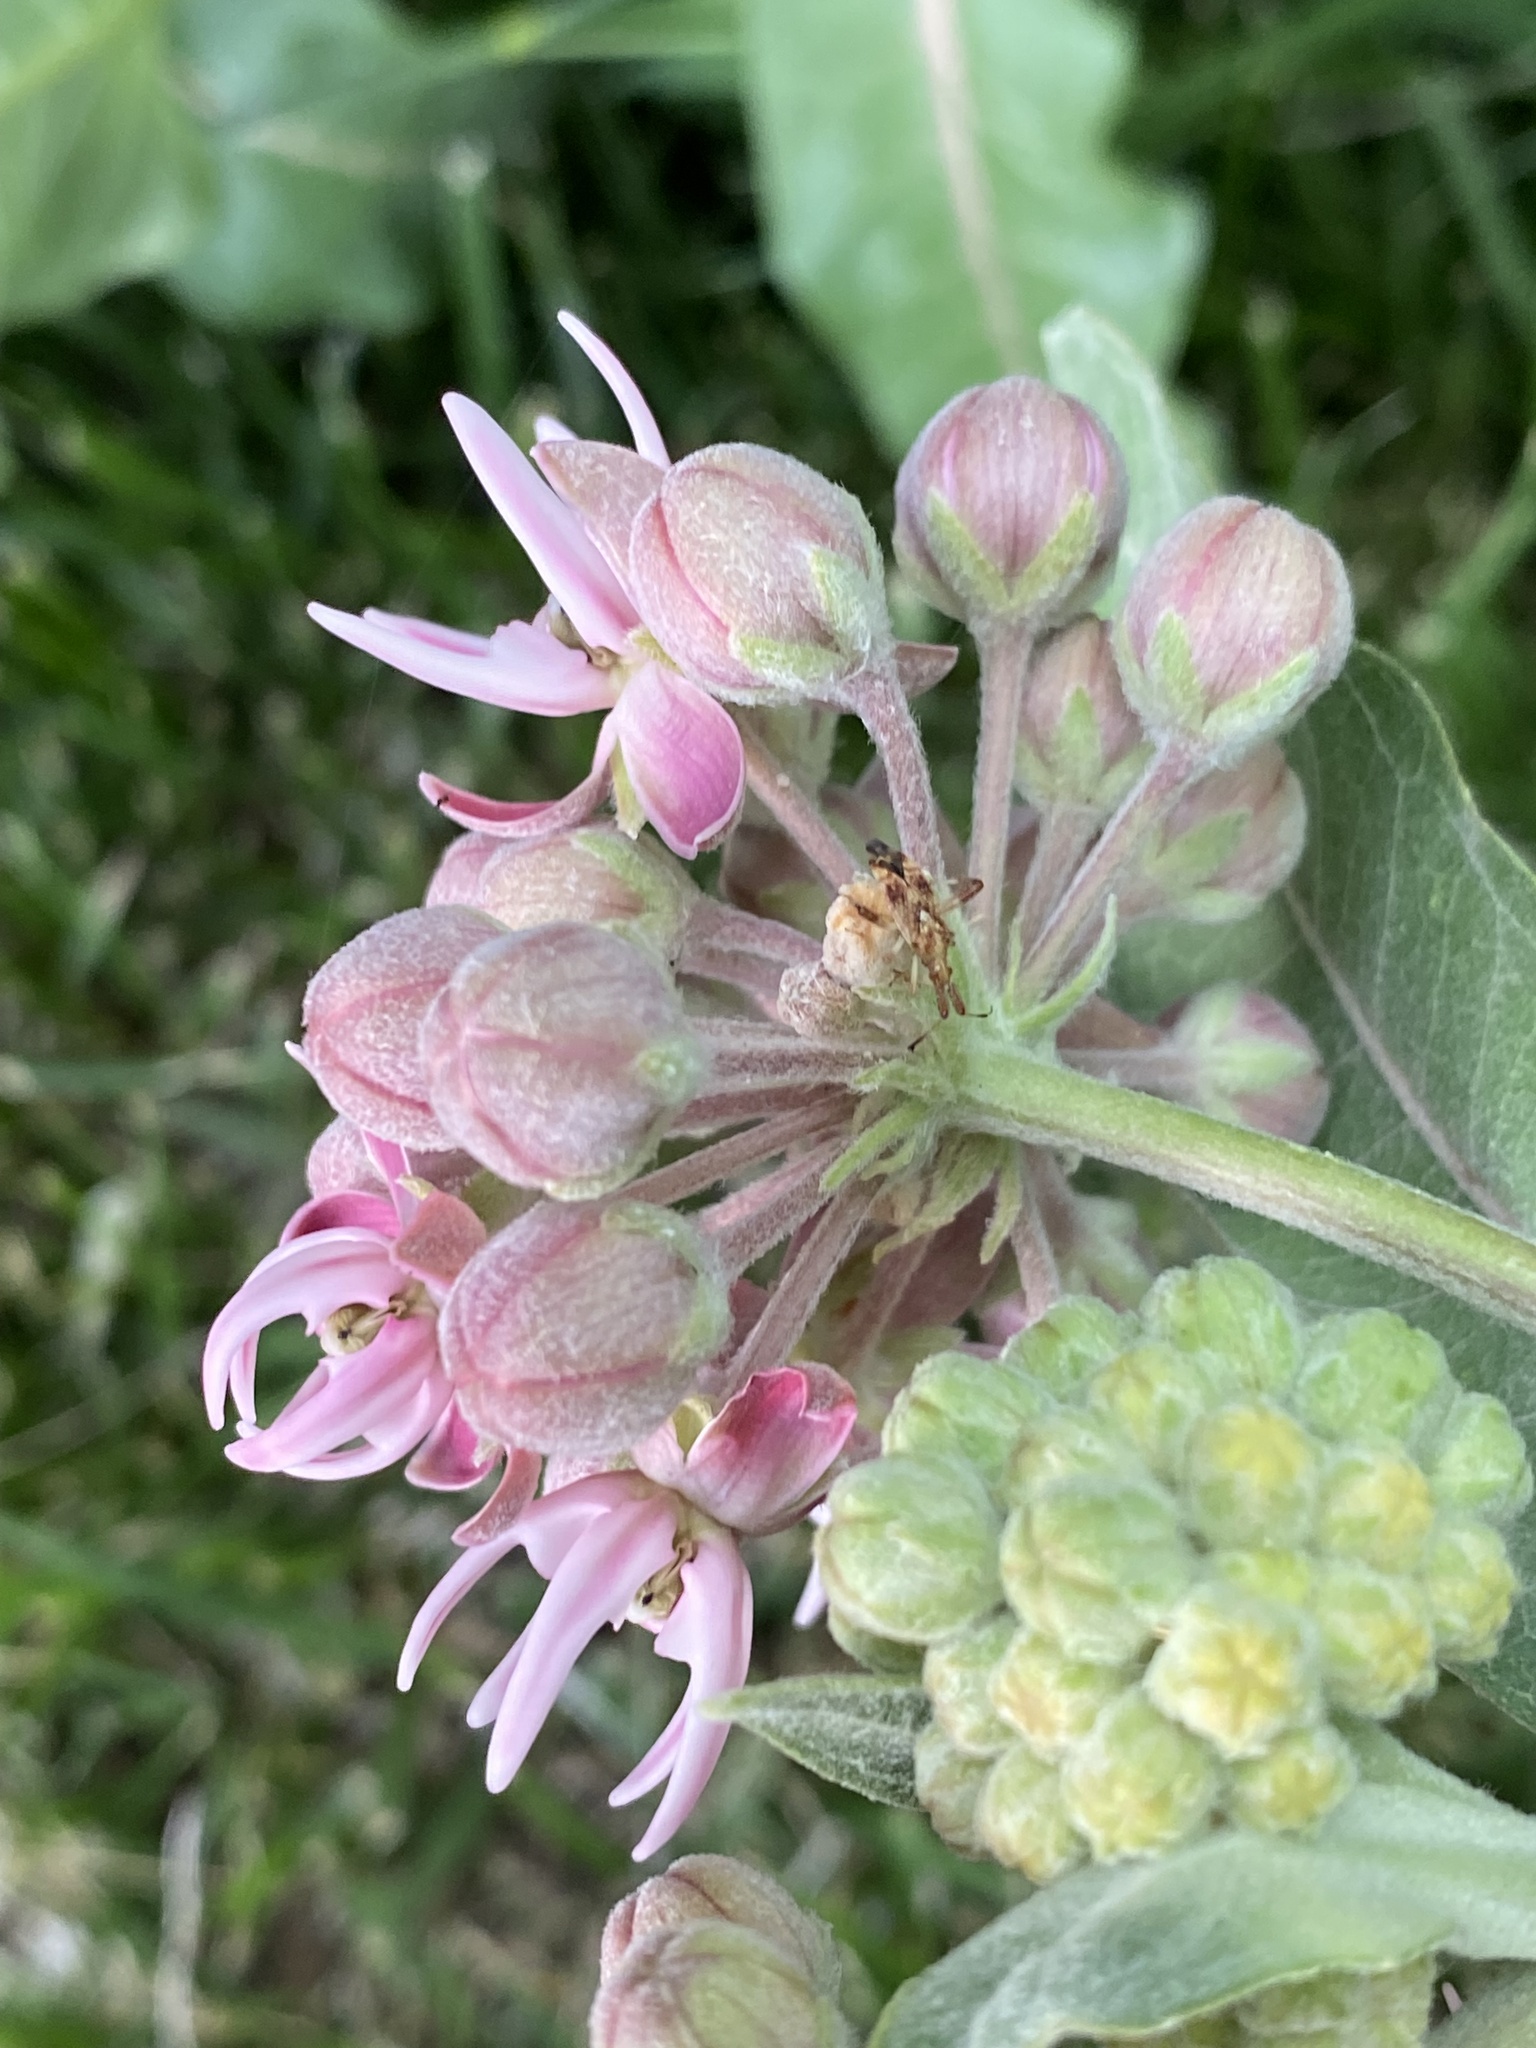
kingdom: Plantae
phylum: Tracheophyta
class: Magnoliopsida
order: Gentianales
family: Apocynaceae
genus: Asclepias
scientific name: Asclepias speciosa
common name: Showy milkweed
